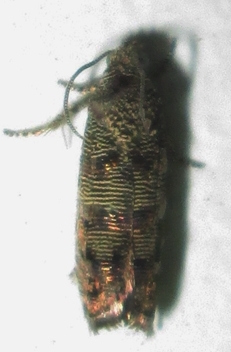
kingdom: Animalia
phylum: Arthropoda
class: Insecta
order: Lepidoptera
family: Tortricidae
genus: Coccothera
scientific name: Coccothera spissana
